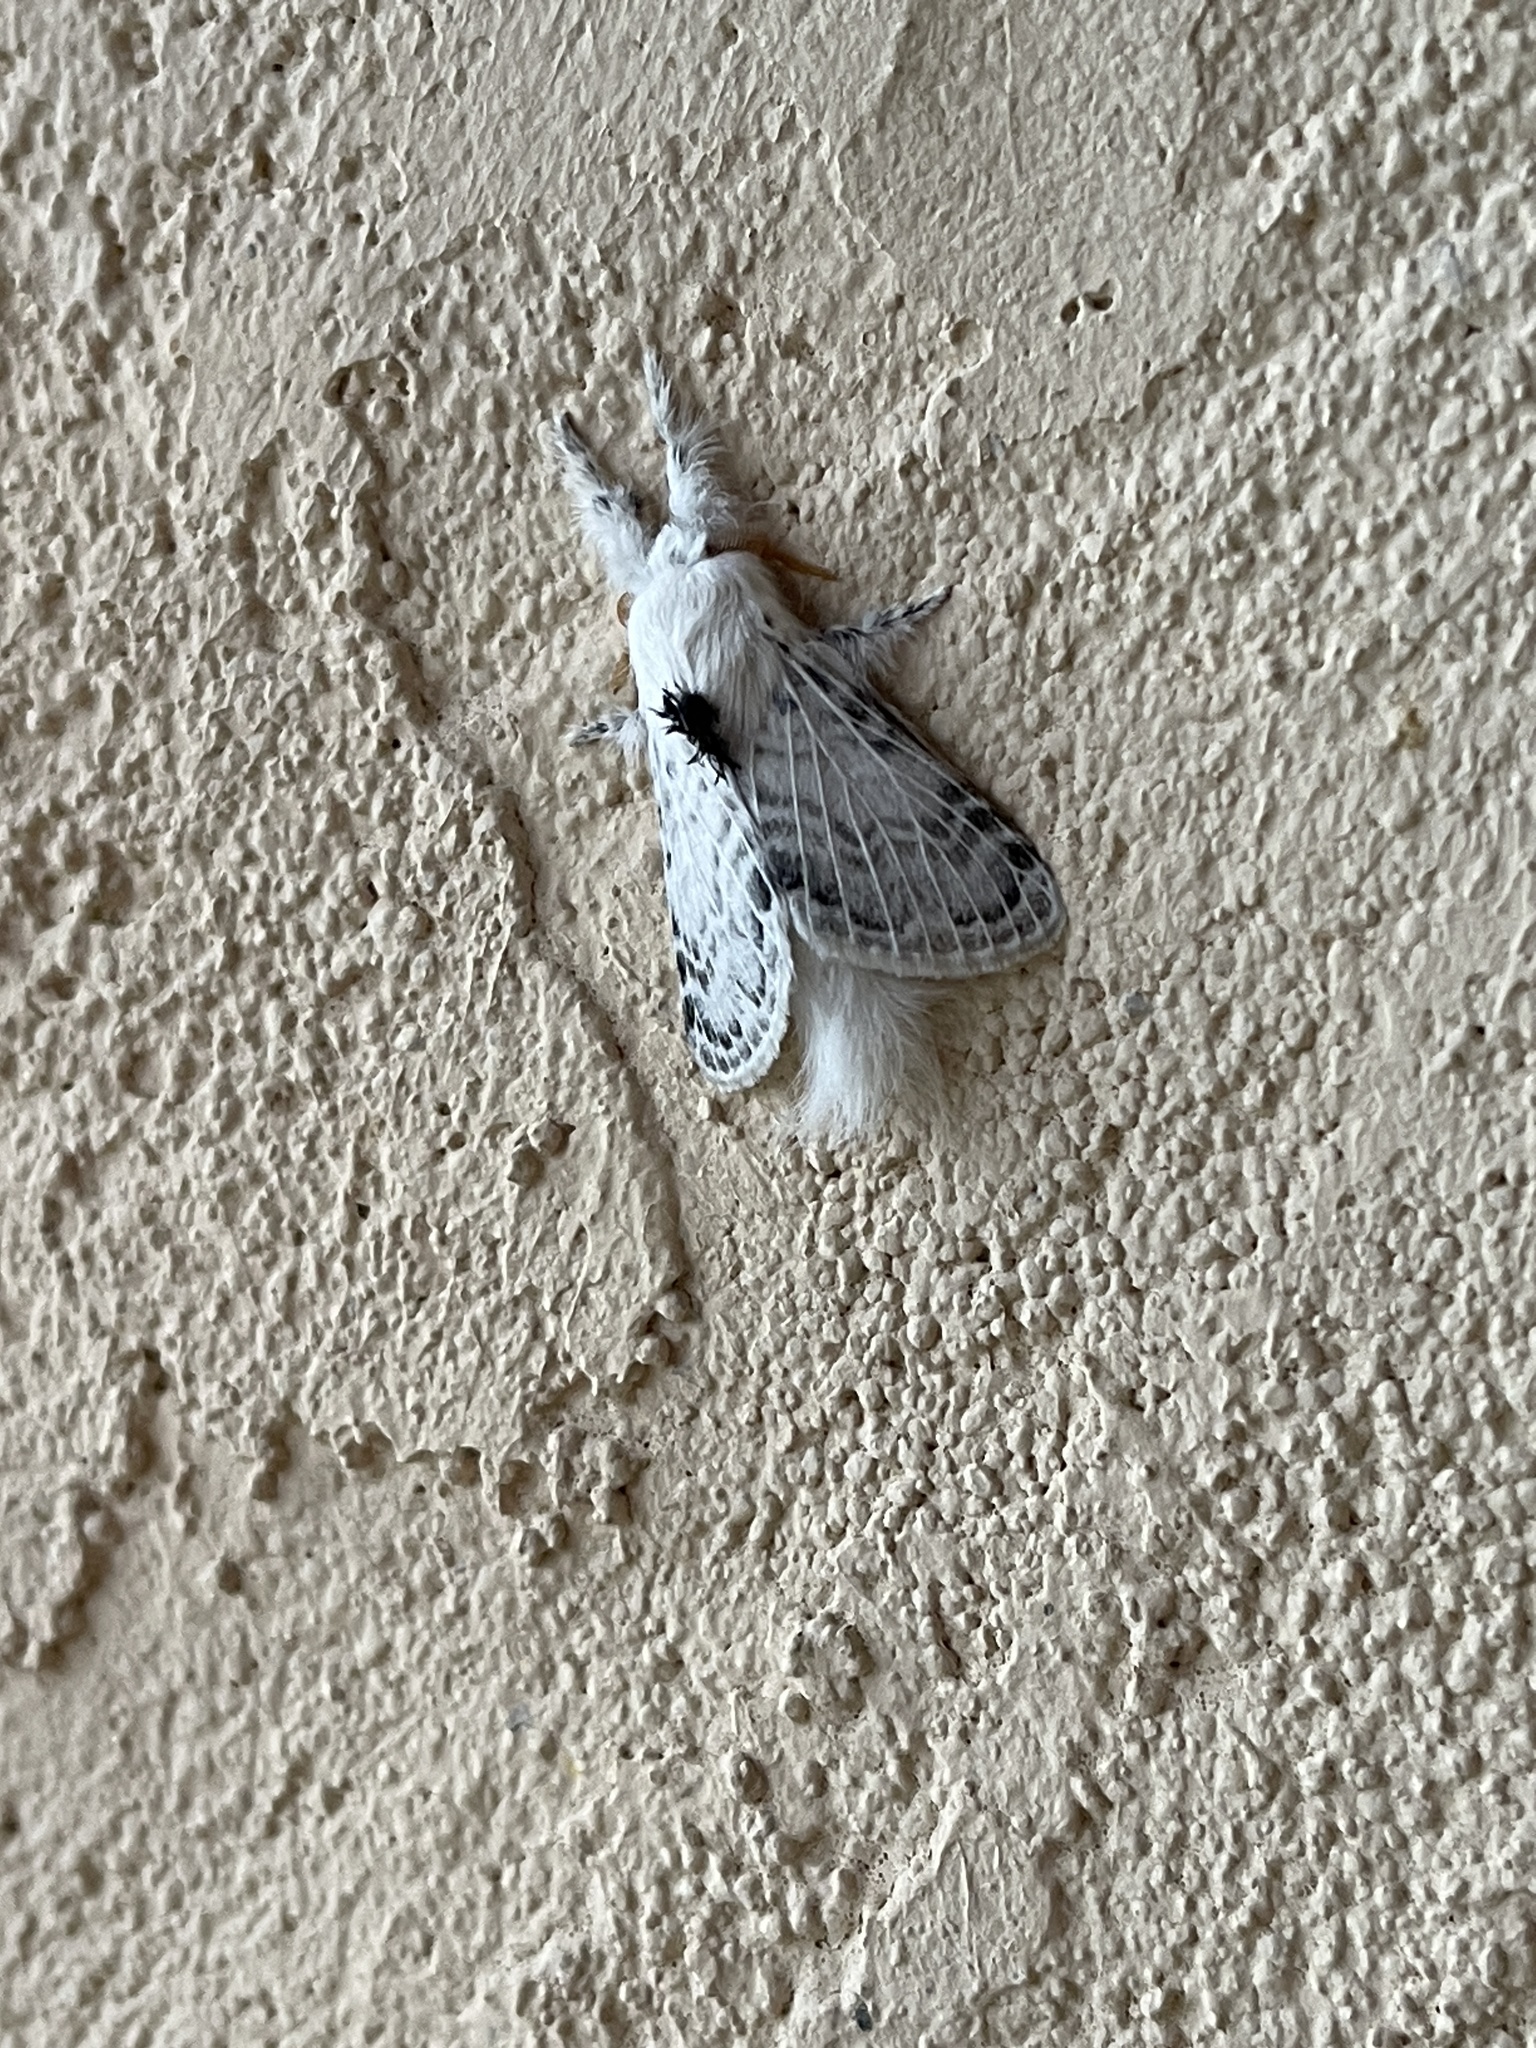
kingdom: Animalia
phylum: Arthropoda
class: Insecta
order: Lepidoptera
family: Lasiocampidae
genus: Apotolype
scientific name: Apotolype brevicrista
